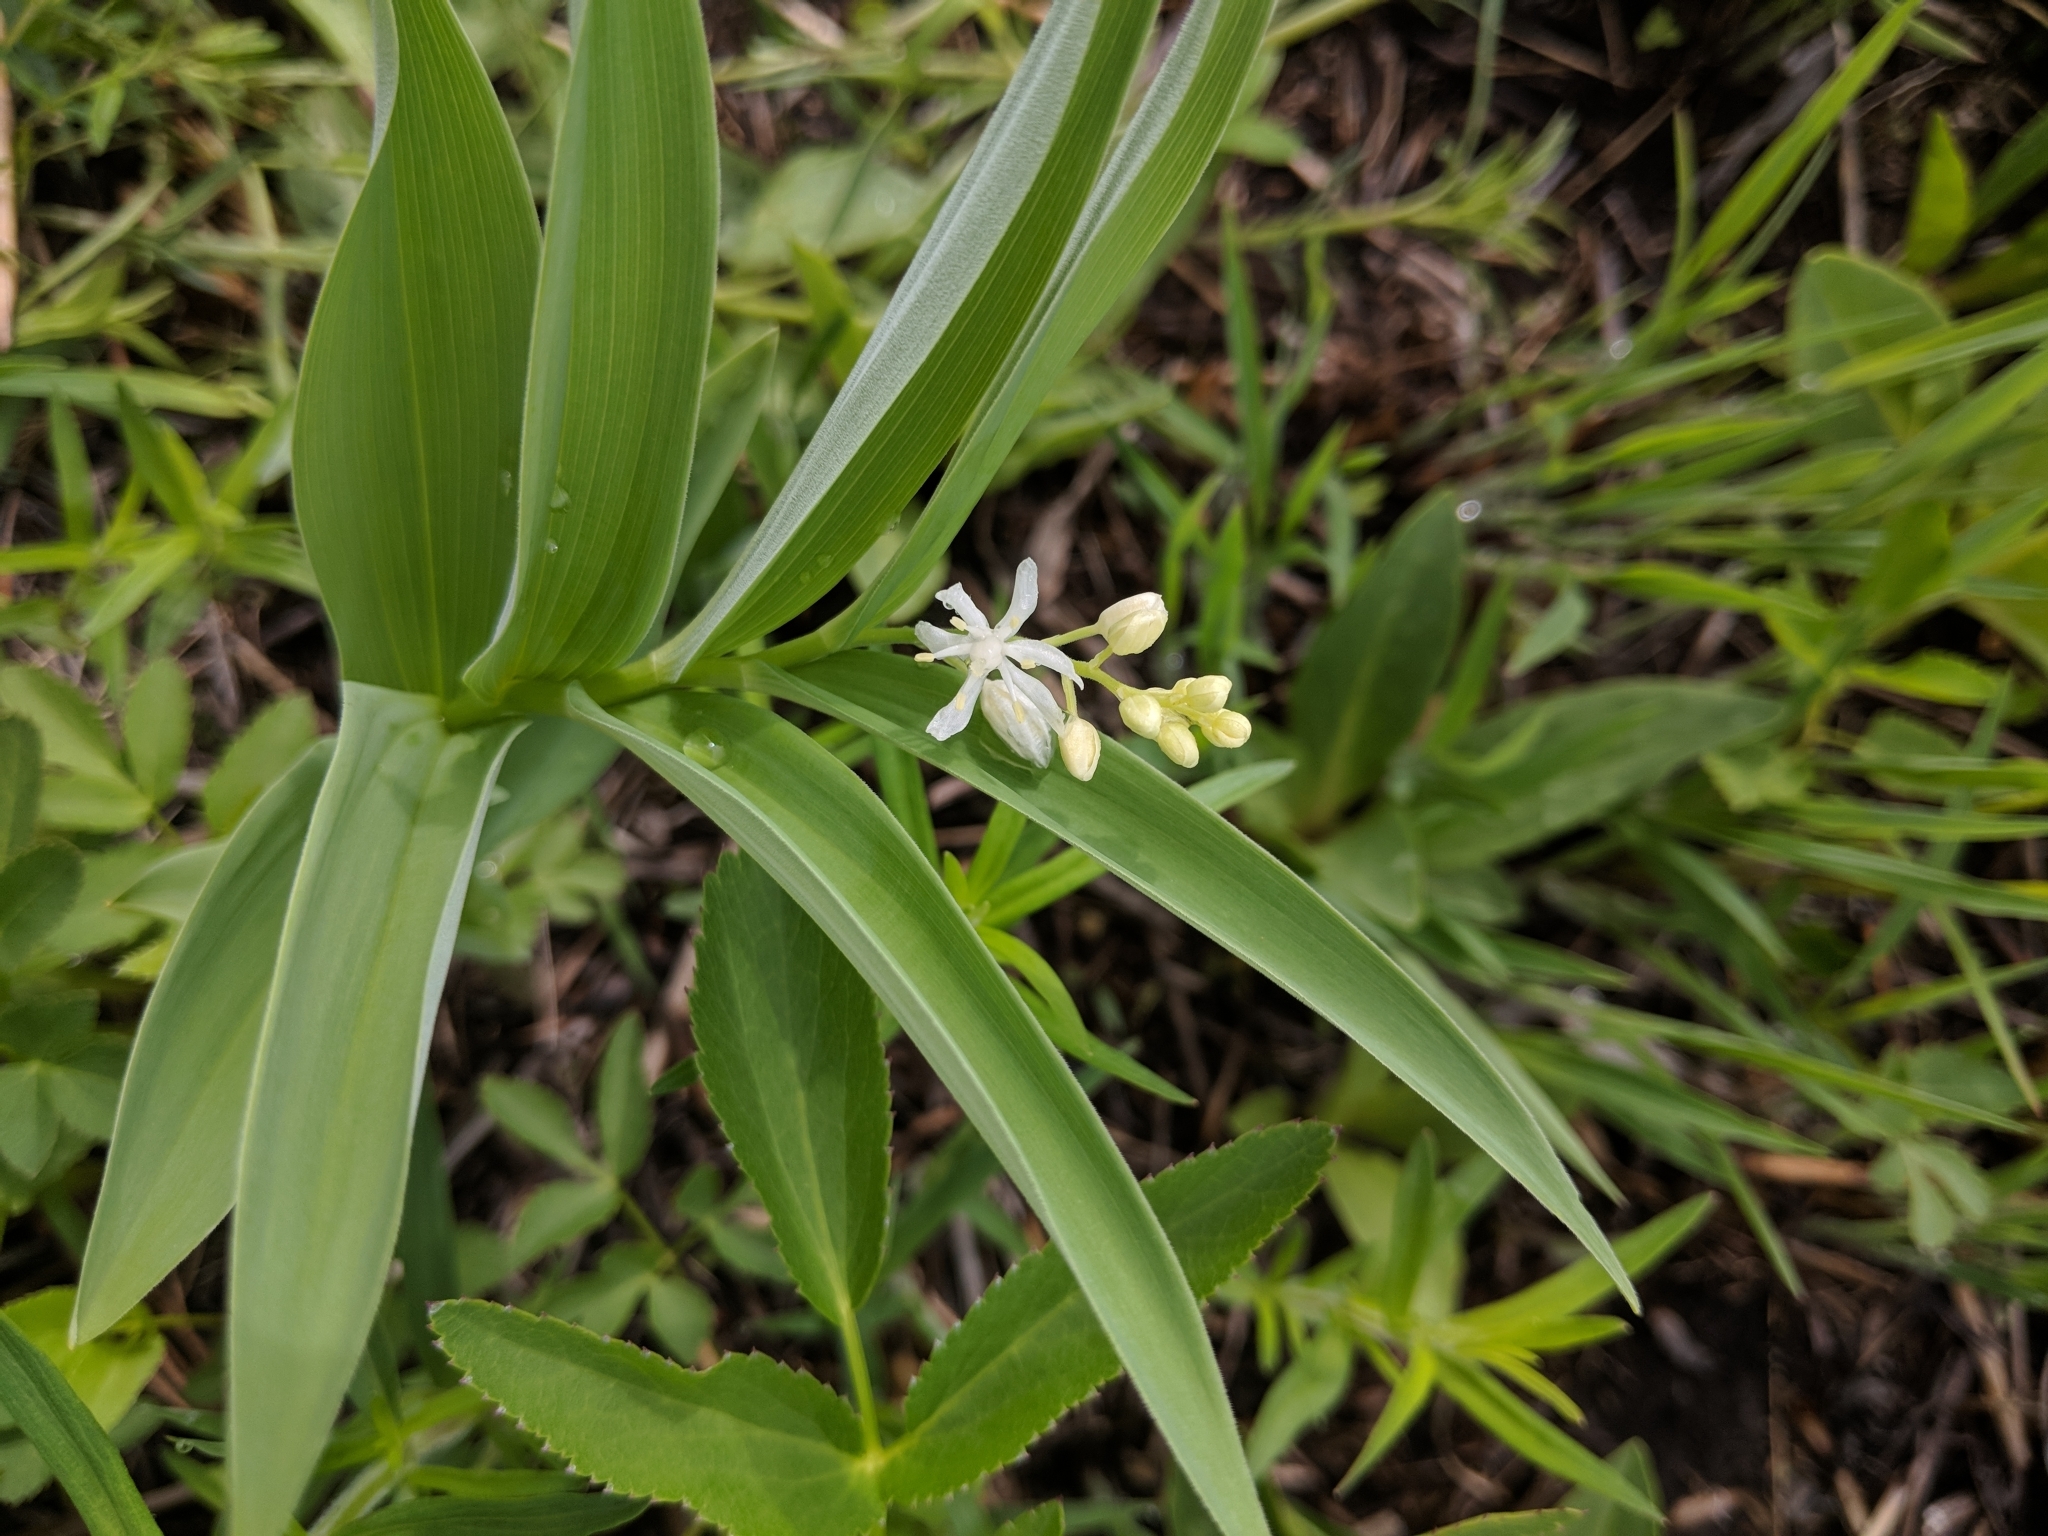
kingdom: Plantae
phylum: Tracheophyta
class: Liliopsida
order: Asparagales
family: Asparagaceae
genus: Maianthemum
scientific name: Maianthemum stellatum
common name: Little false solomon's seal
